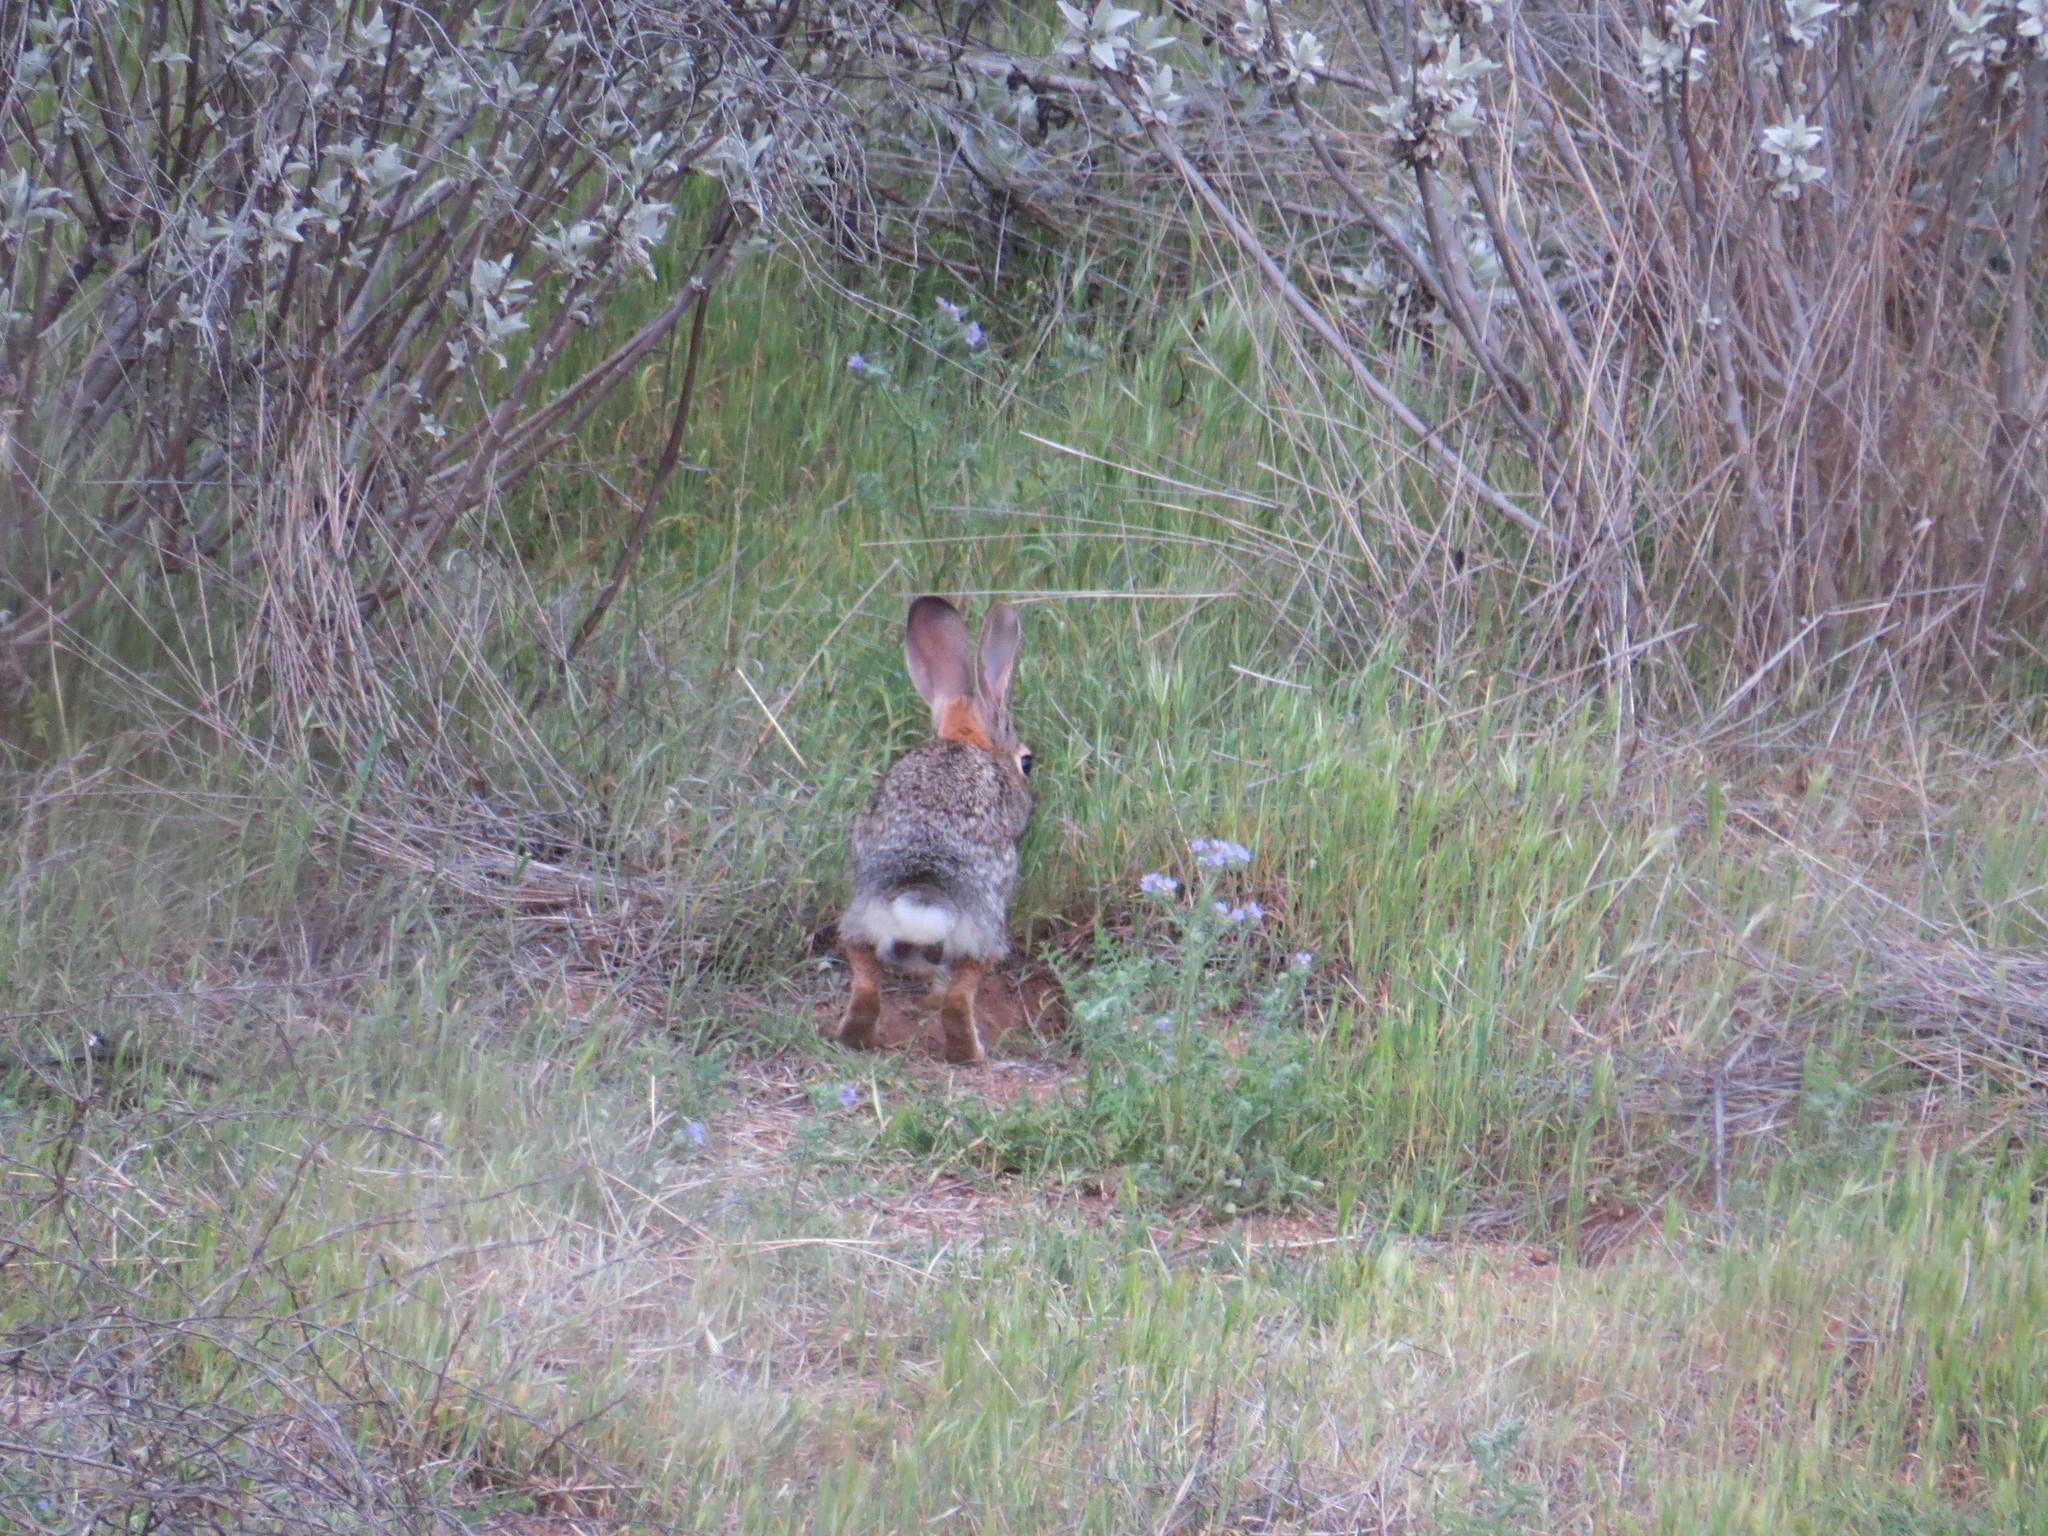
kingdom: Animalia
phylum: Chordata
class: Mammalia
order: Lagomorpha
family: Leporidae
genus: Sylvilagus
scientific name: Sylvilagus audubonii
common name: Desert cottontail
